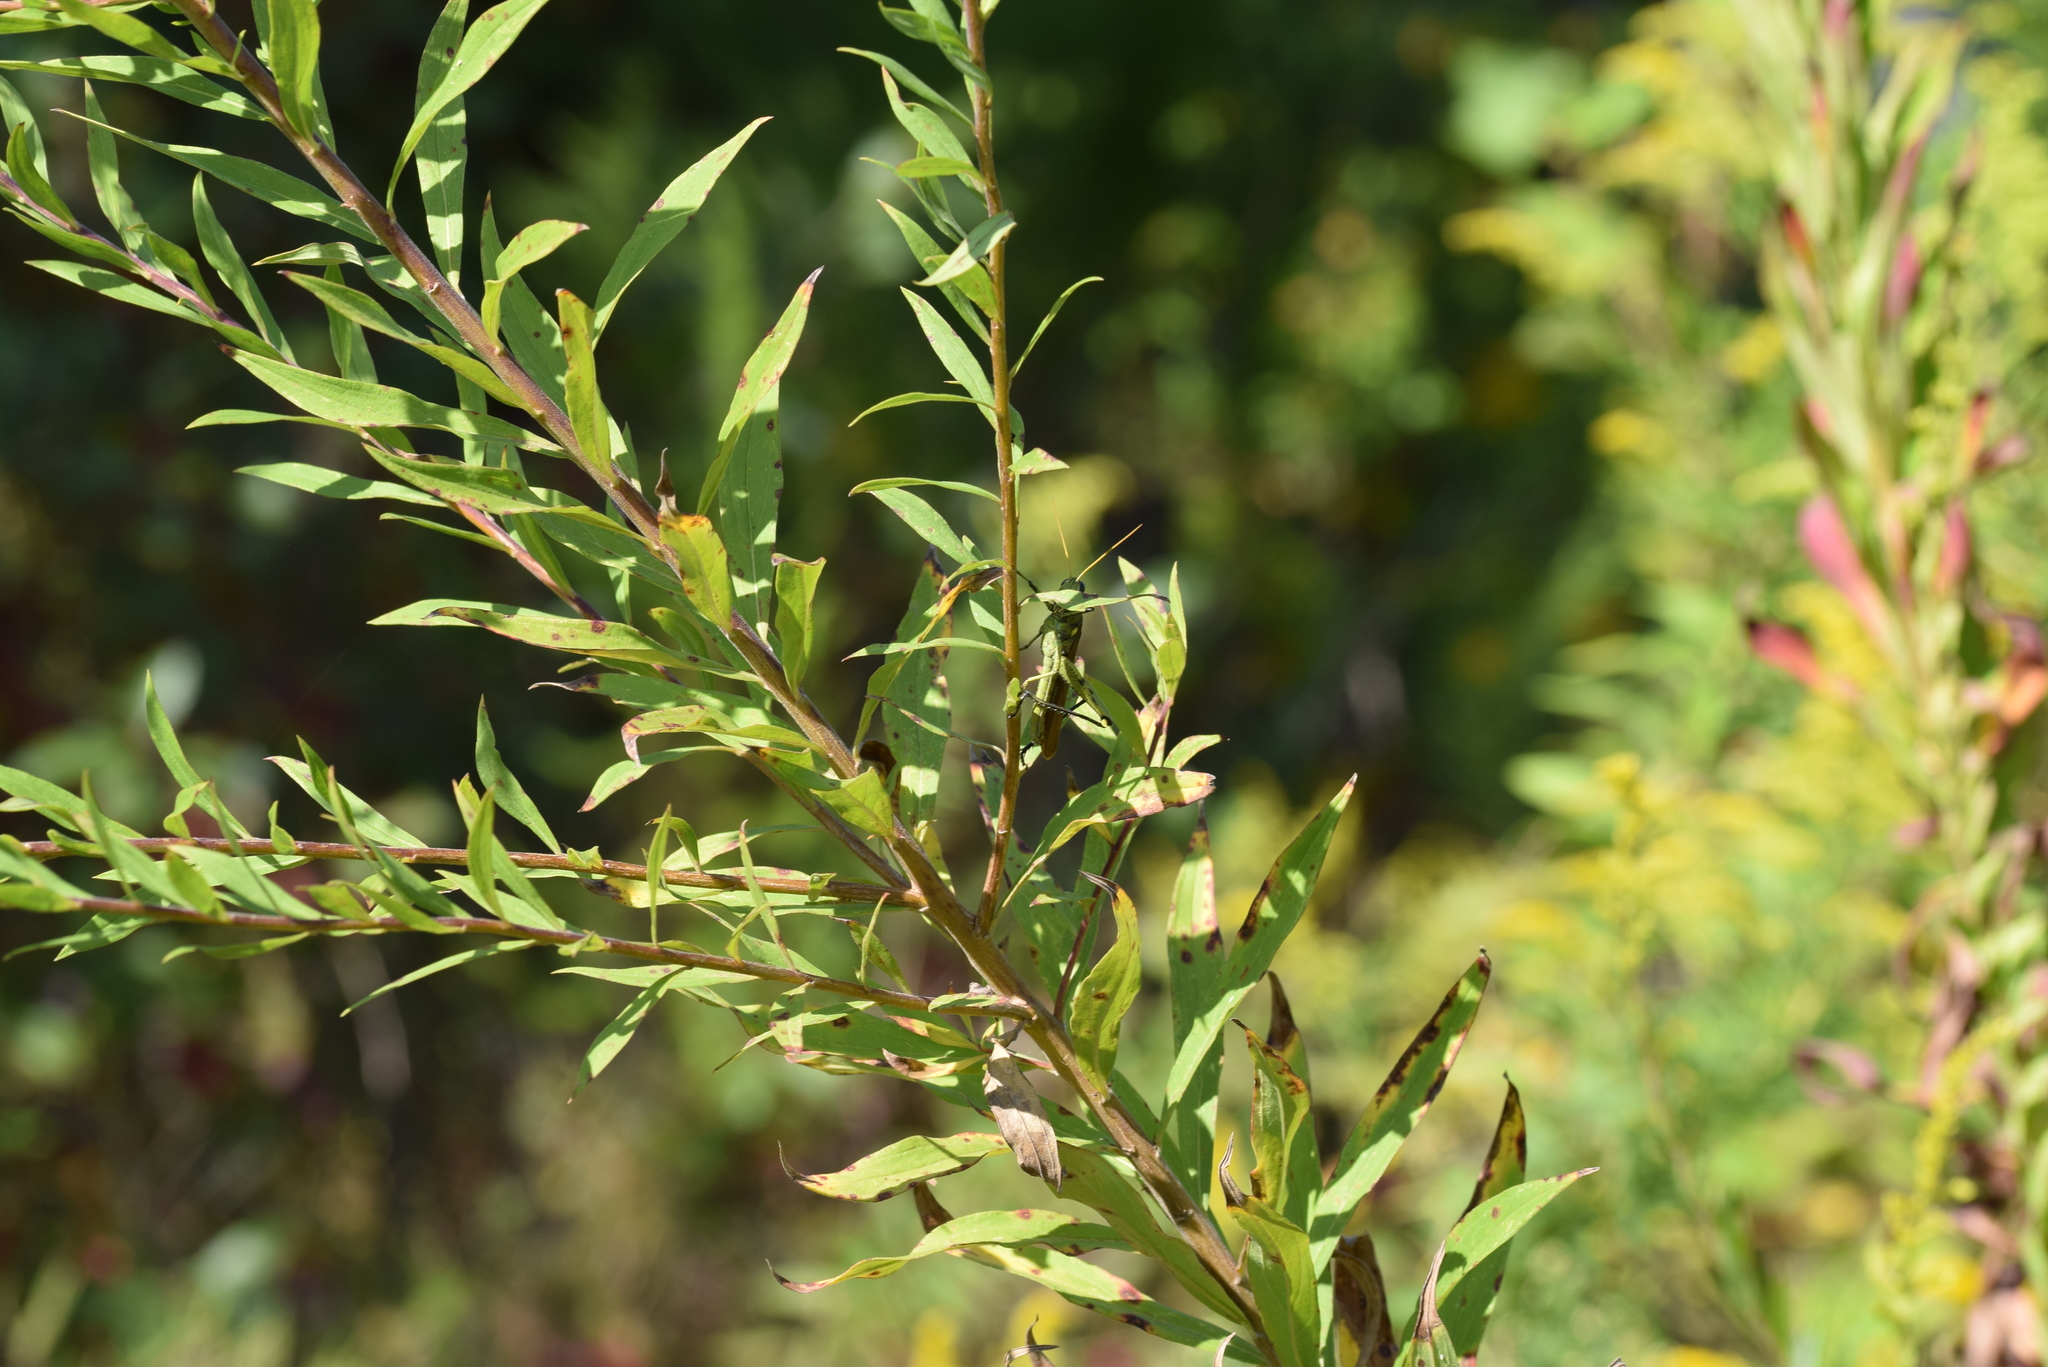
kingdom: Animalia
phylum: Arthropoda
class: Insecta
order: Orthoptera
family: Acrididae
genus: Schistocerca
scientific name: Schistocerca obscura
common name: Obscure bird grasshopper
